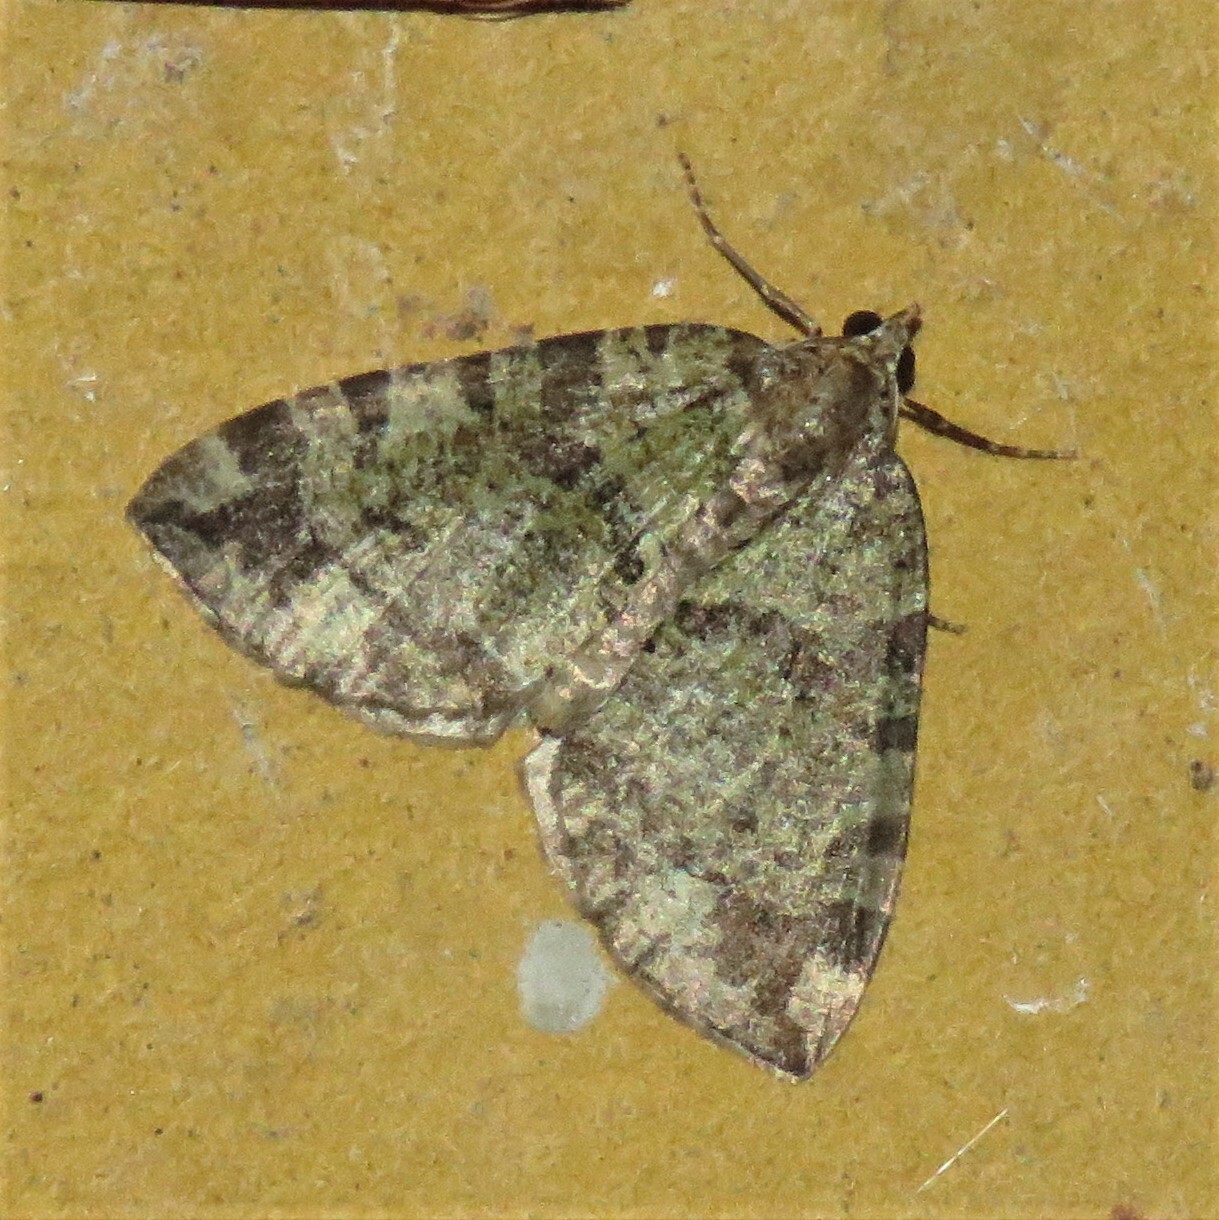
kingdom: Animalia
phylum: Arthropoda
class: Insecta
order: Lepidoptera
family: Geometridae
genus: Hydriomena
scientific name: Hydriomena furcata
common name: July highflyer
